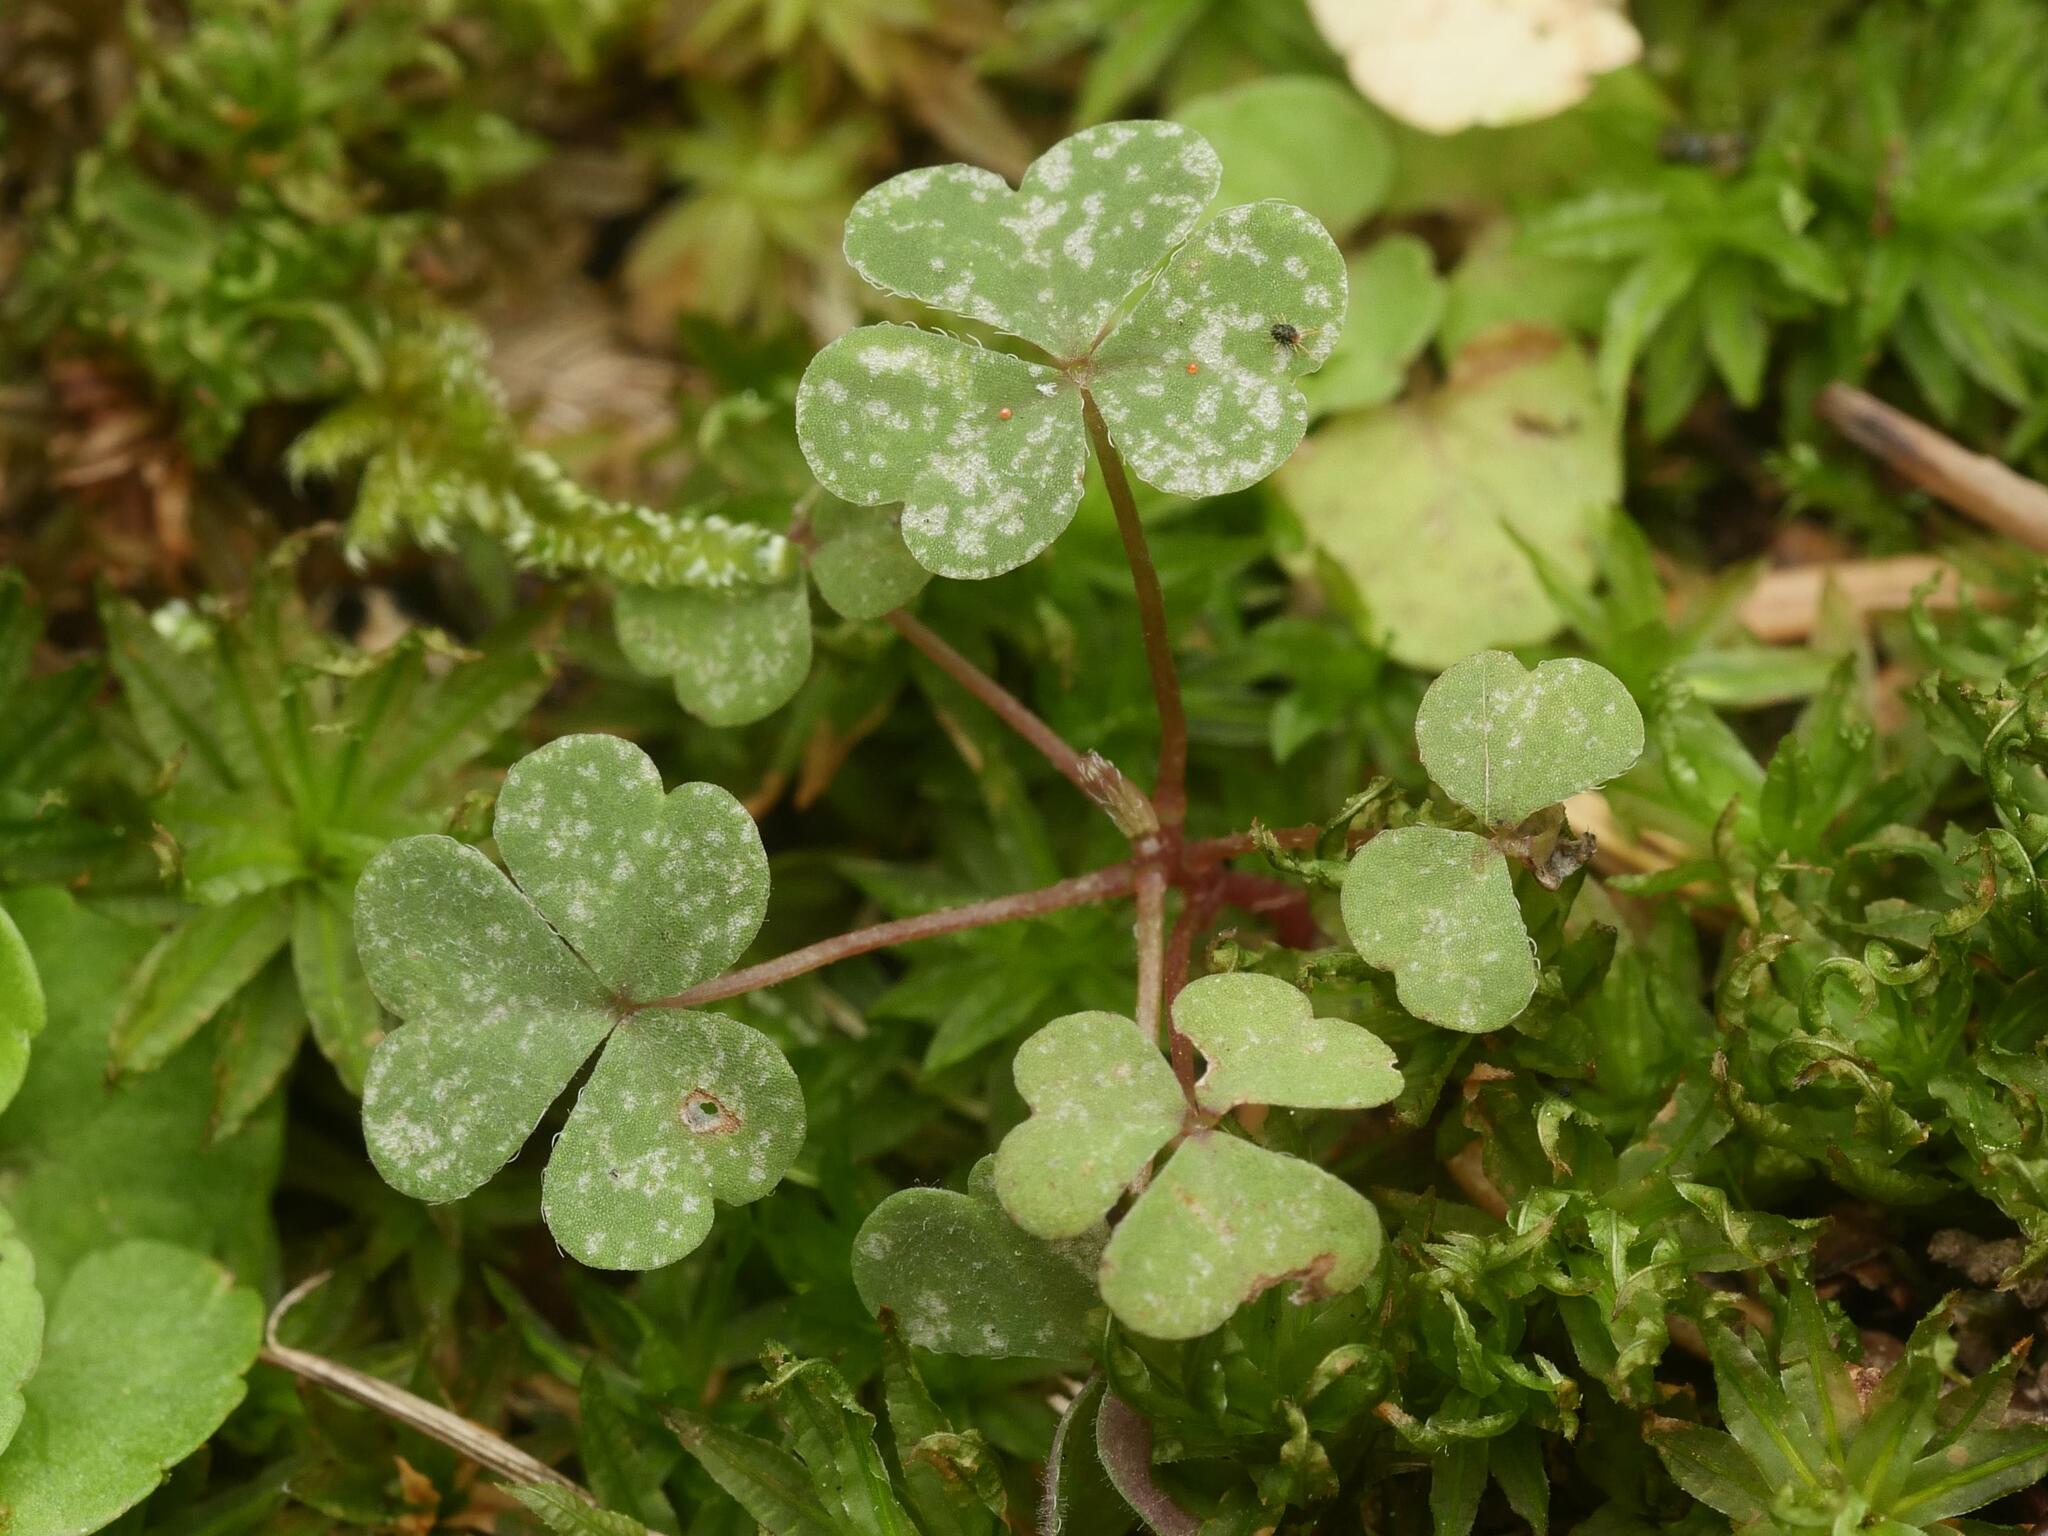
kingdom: Plantae
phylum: Tracheophyta
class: Magnoliopsida
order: Oxalidales
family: Oxalidaceae
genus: Oxalis
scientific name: Oxalis stricta
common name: Upright yellow-sorrel
